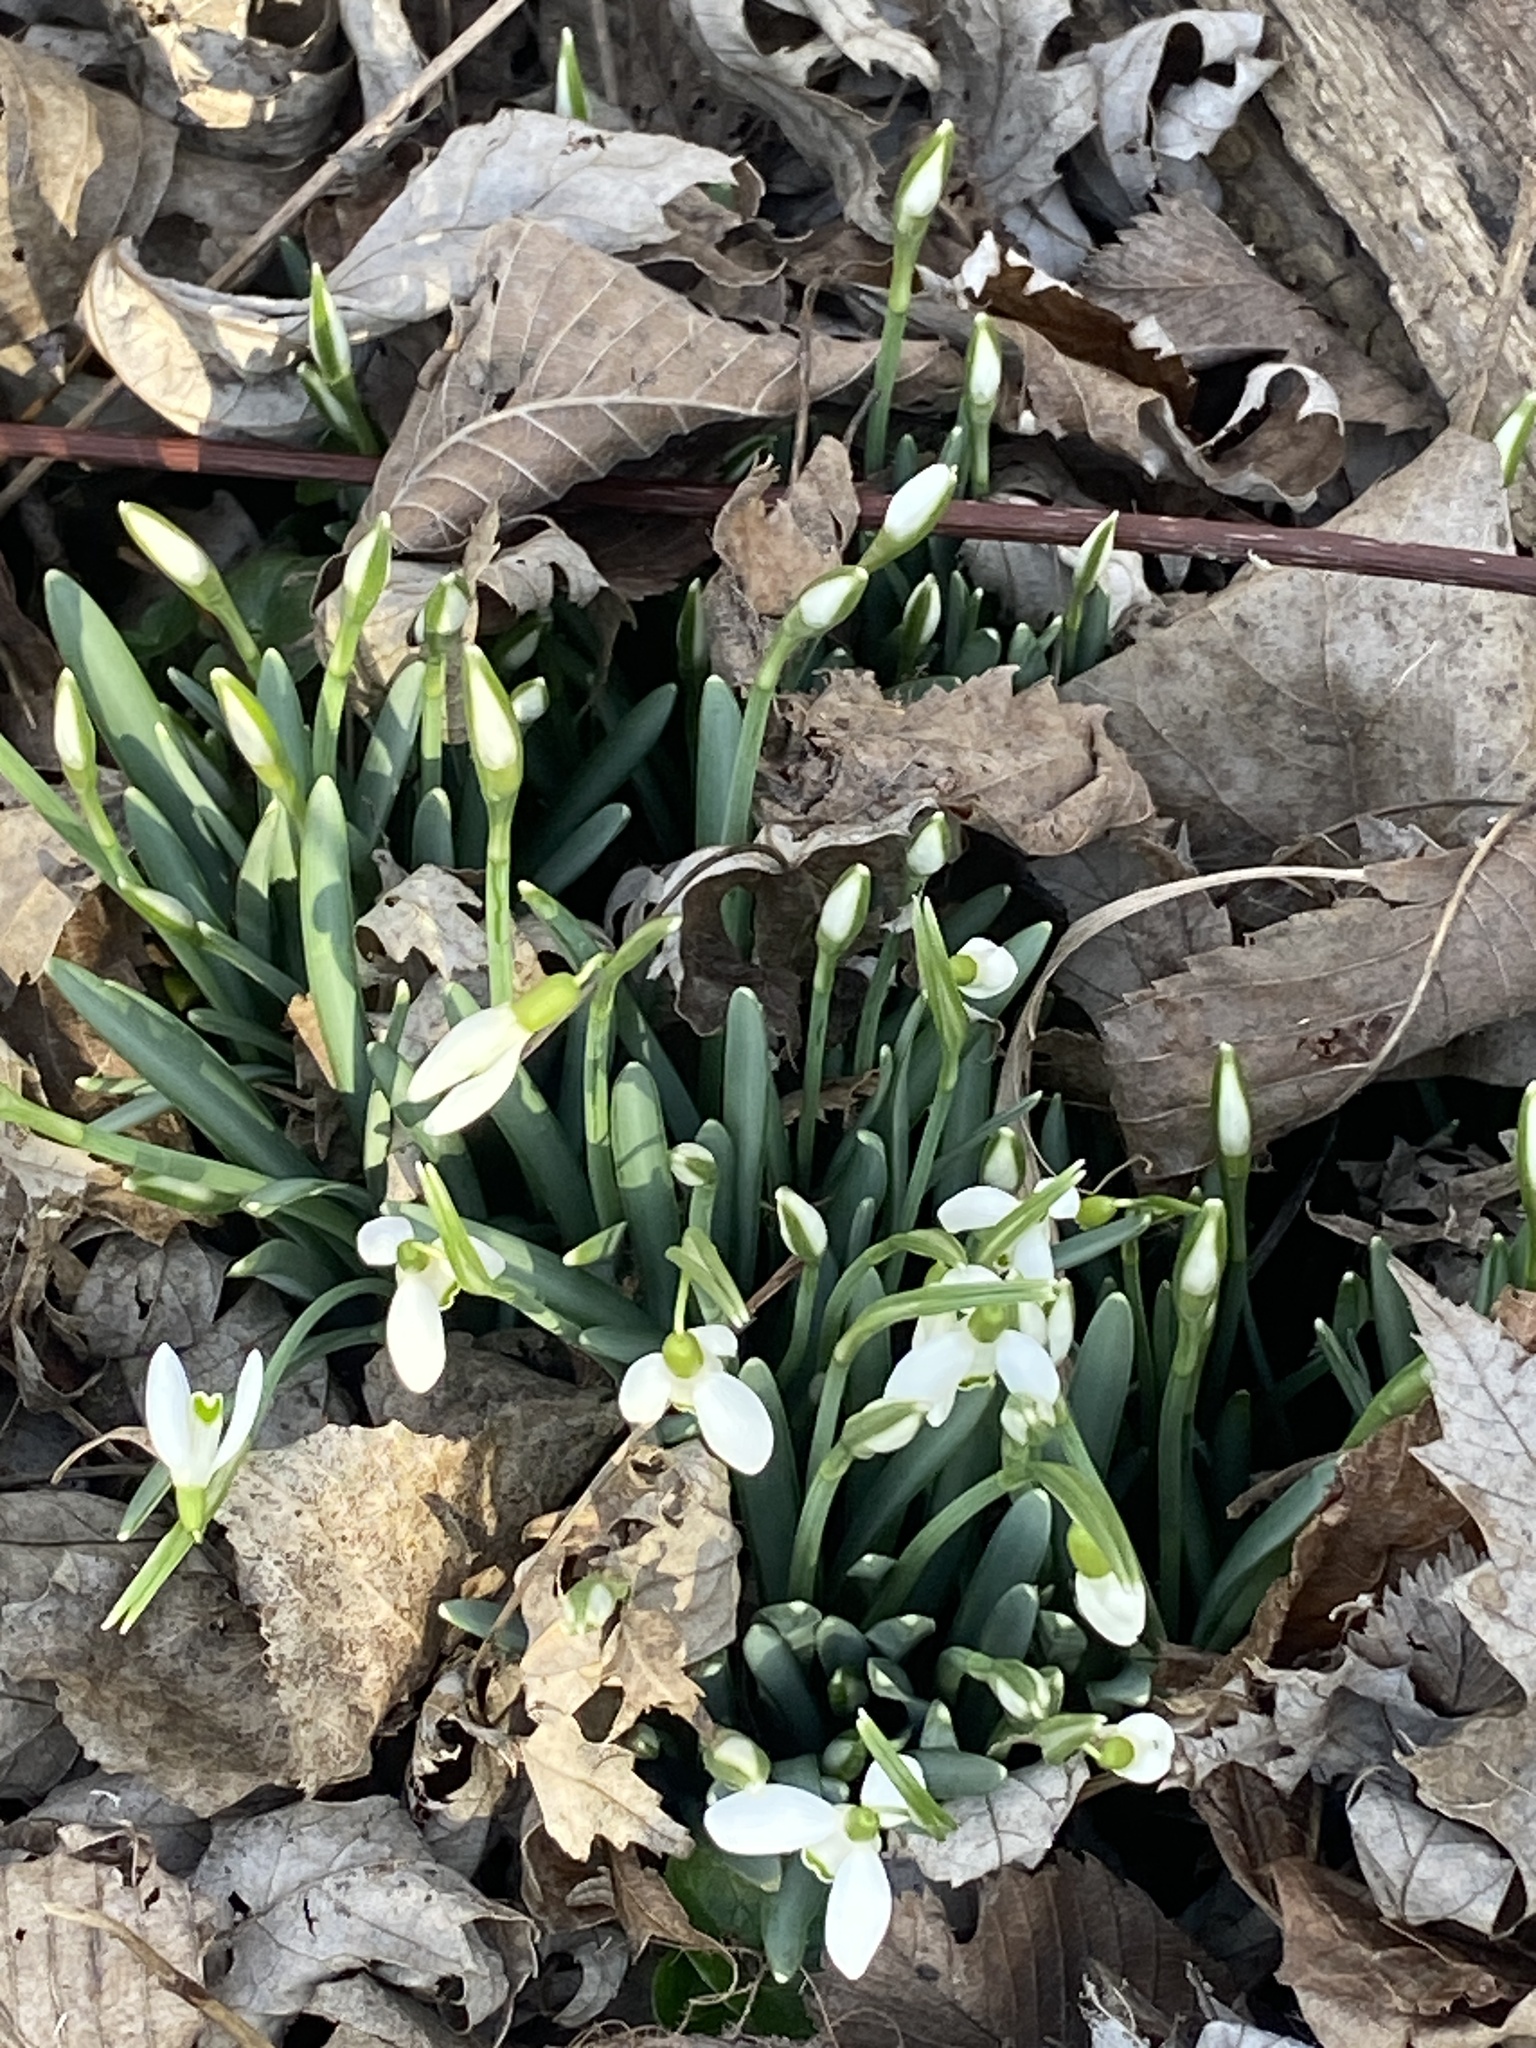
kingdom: Plantae
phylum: Tracheophyta
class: Liliopsida
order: Asparagales
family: Amaryllidaceae
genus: Galanthus
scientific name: Galanthus nivalis
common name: Snowdrop
